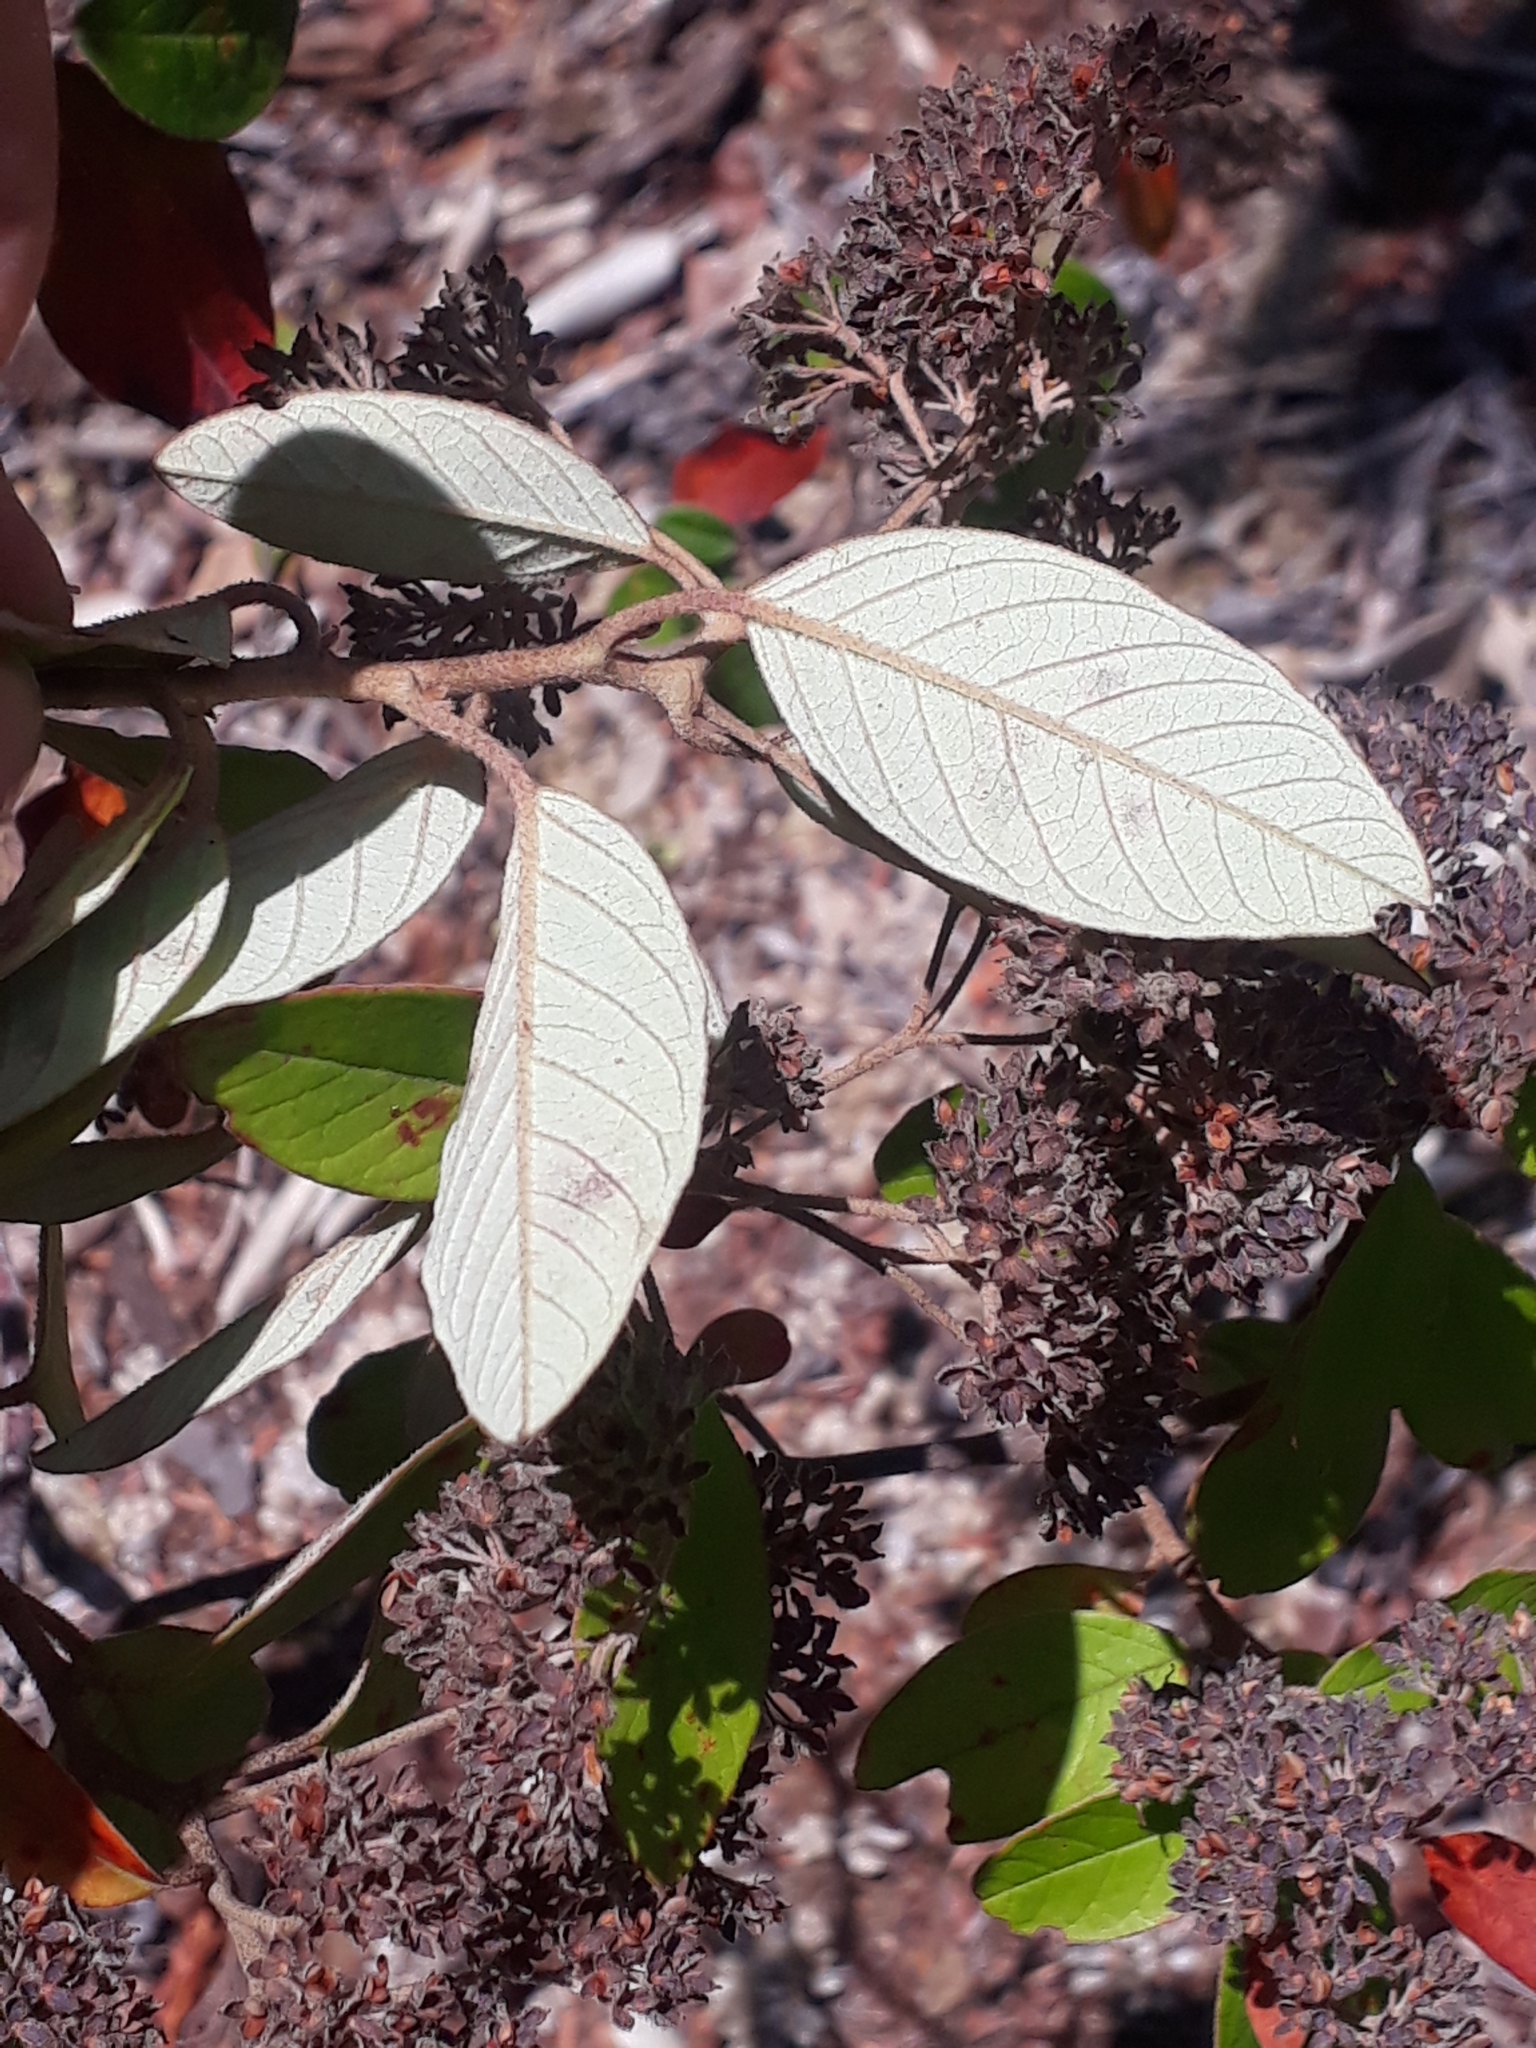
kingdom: Plantae
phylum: Tracheophyta
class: Magnoliopsida
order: Rosales
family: Rhamnaceae
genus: Pomaderris
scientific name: Pomaderris kumeraho
